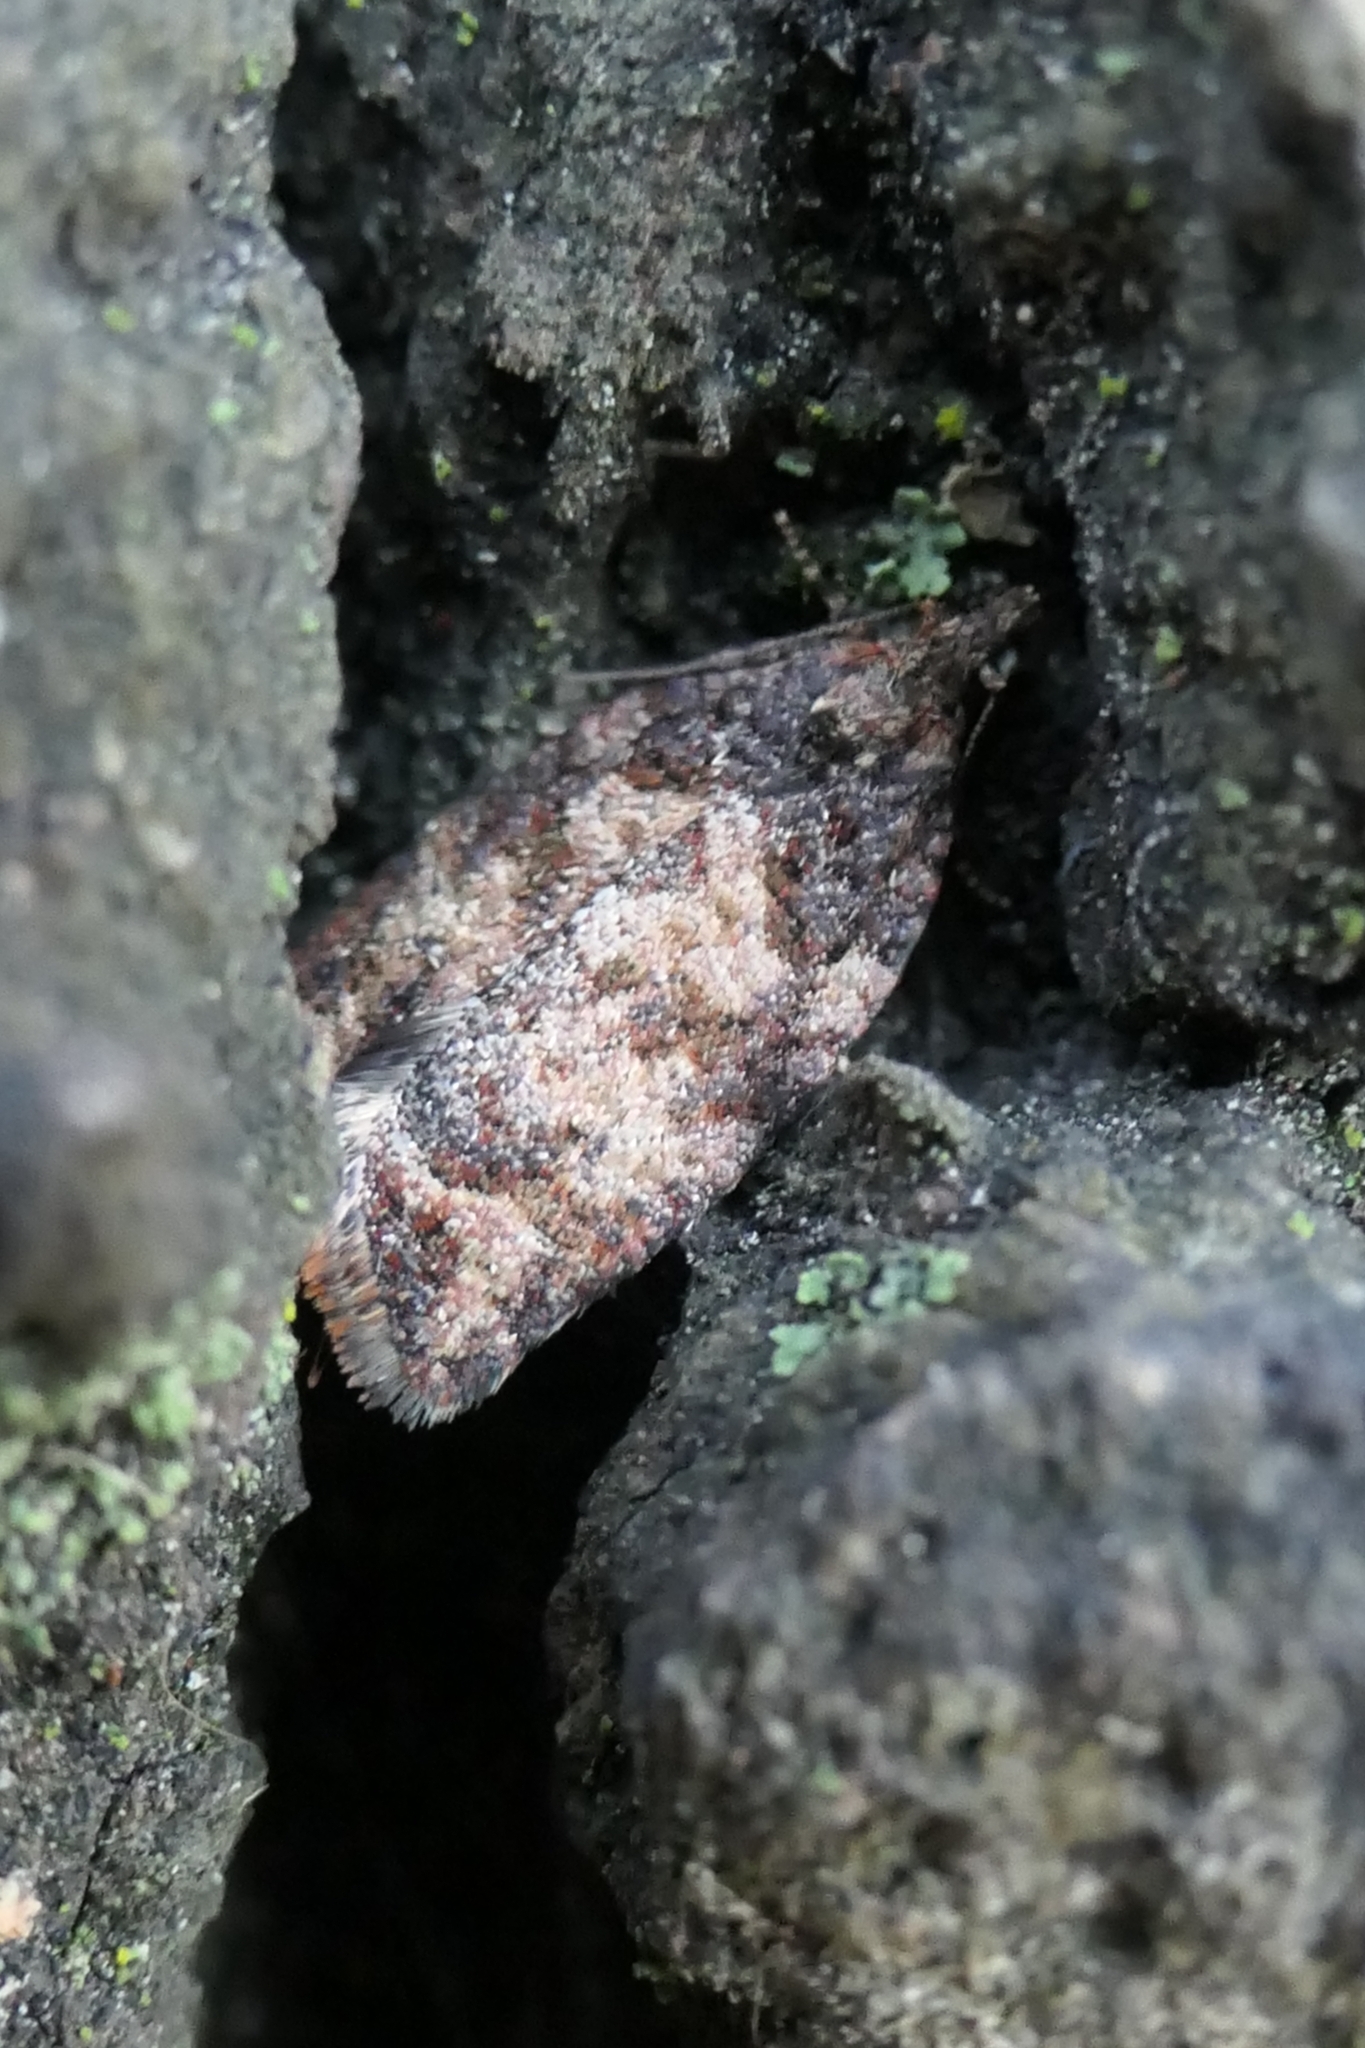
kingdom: Animalia
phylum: Arthropoda
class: Insecta
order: Lepidoptera
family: Tortricidae
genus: Capua
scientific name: Capua intractana
